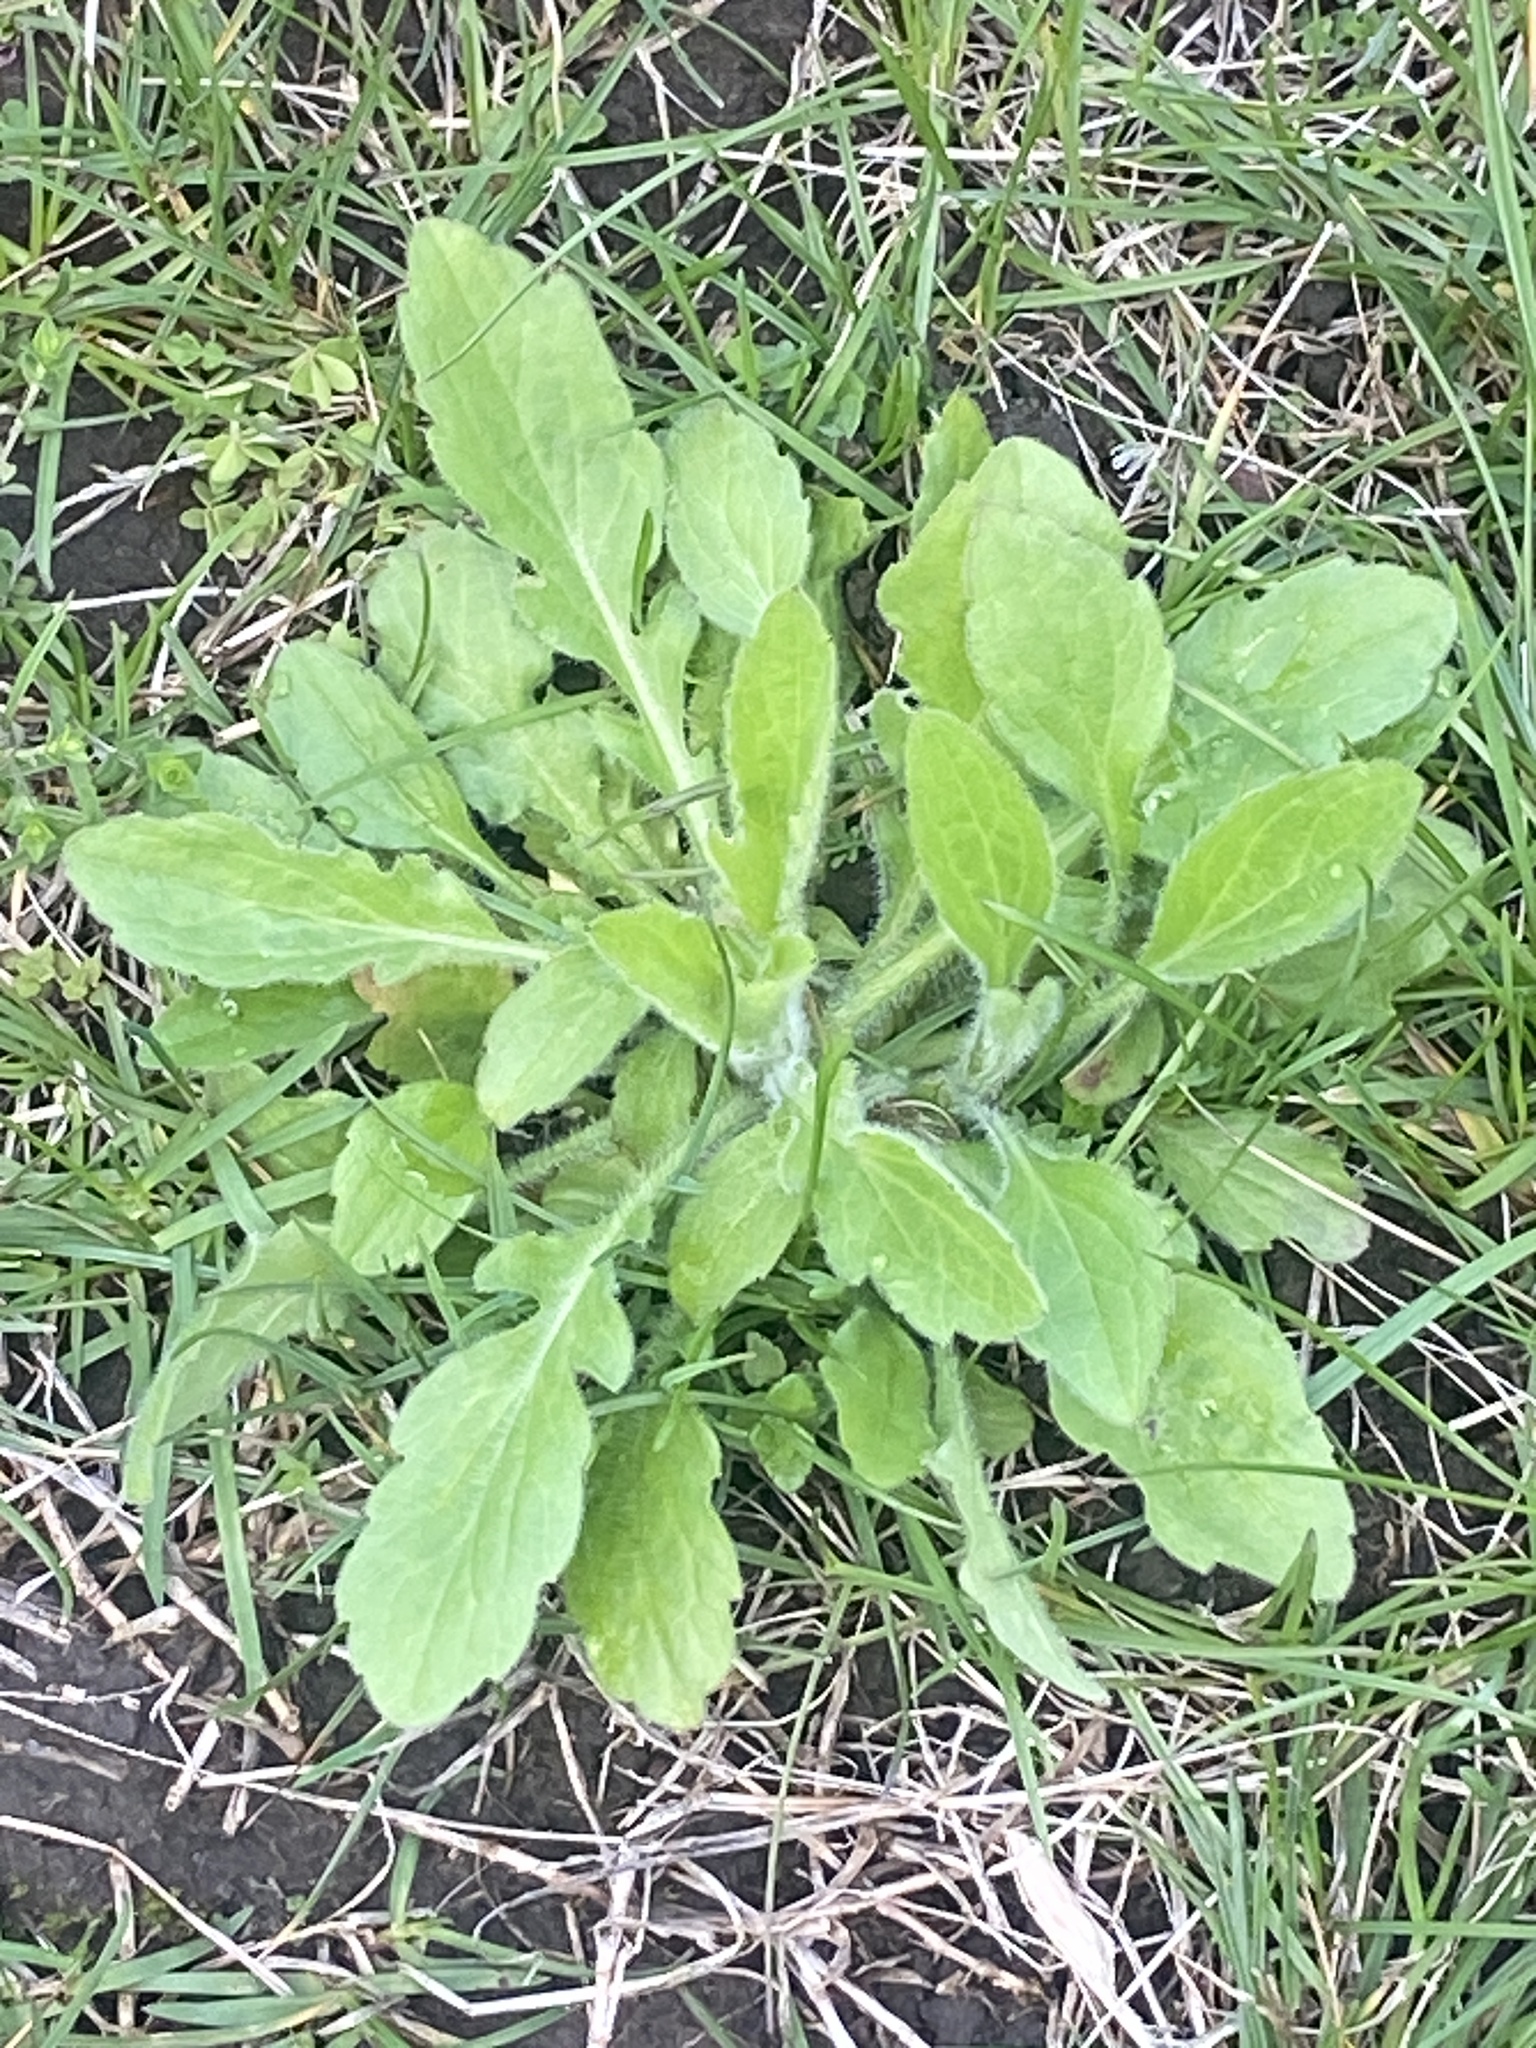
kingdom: Plantae
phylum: Tracheophyta
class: Magnoliopsida
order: Asterales
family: Asteraceae
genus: Erigeron
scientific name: Erigeron annuus
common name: Tall fleabane
